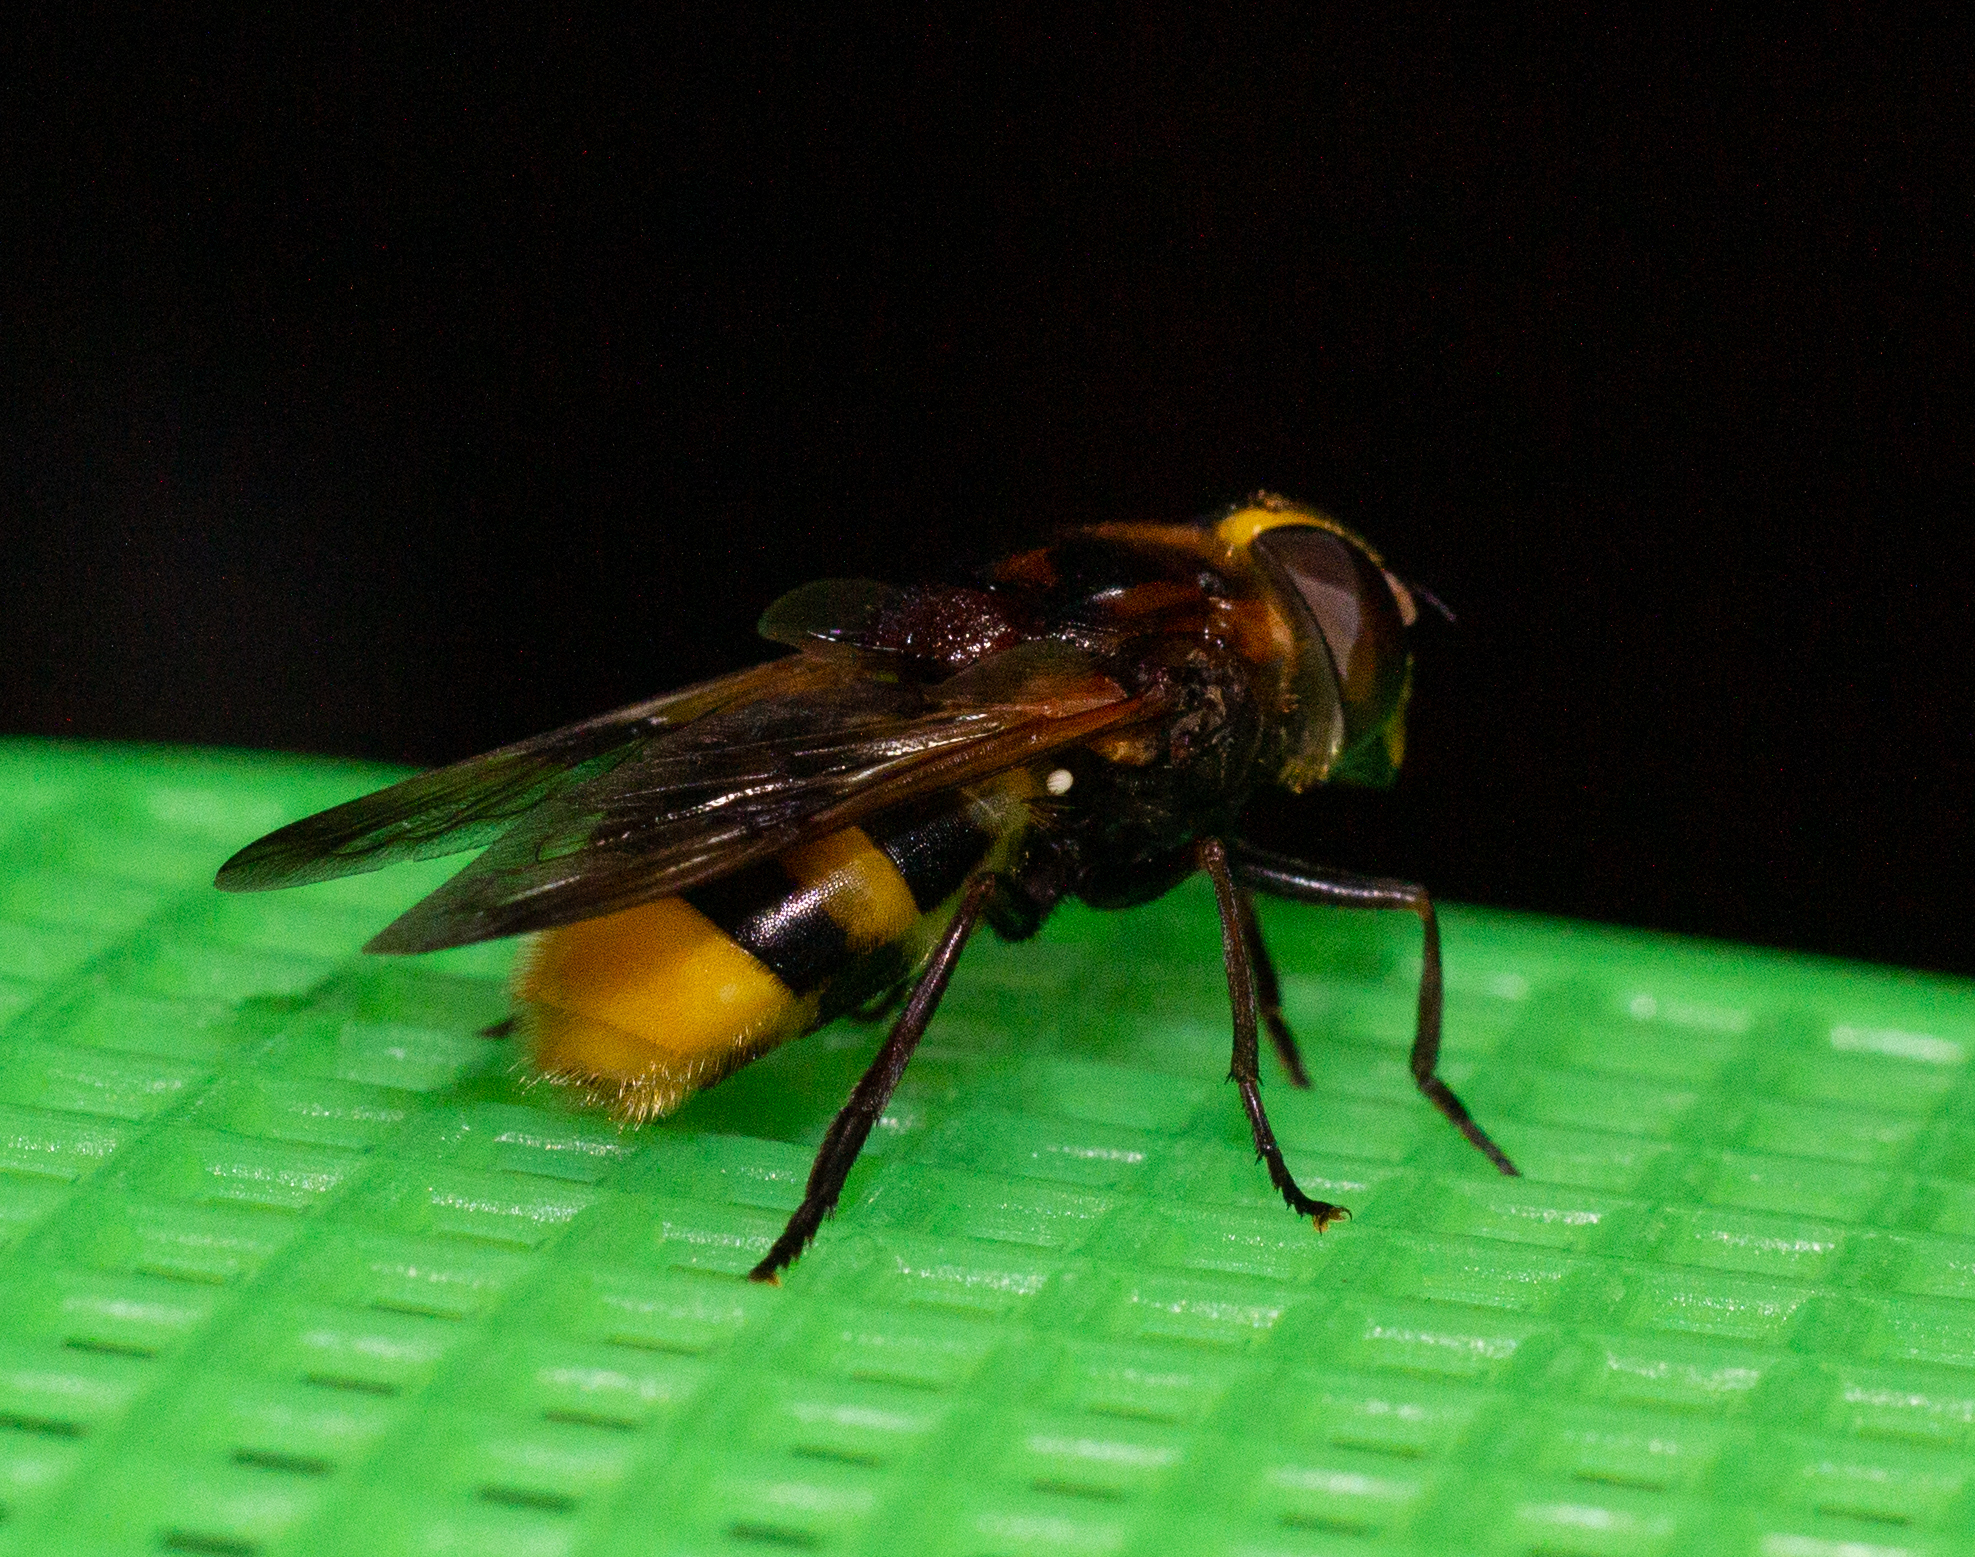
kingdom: Animalia
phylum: Arthropoda
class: Insecta
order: Diptera
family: Syrphidae
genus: Volucella
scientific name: Volucella elegans
